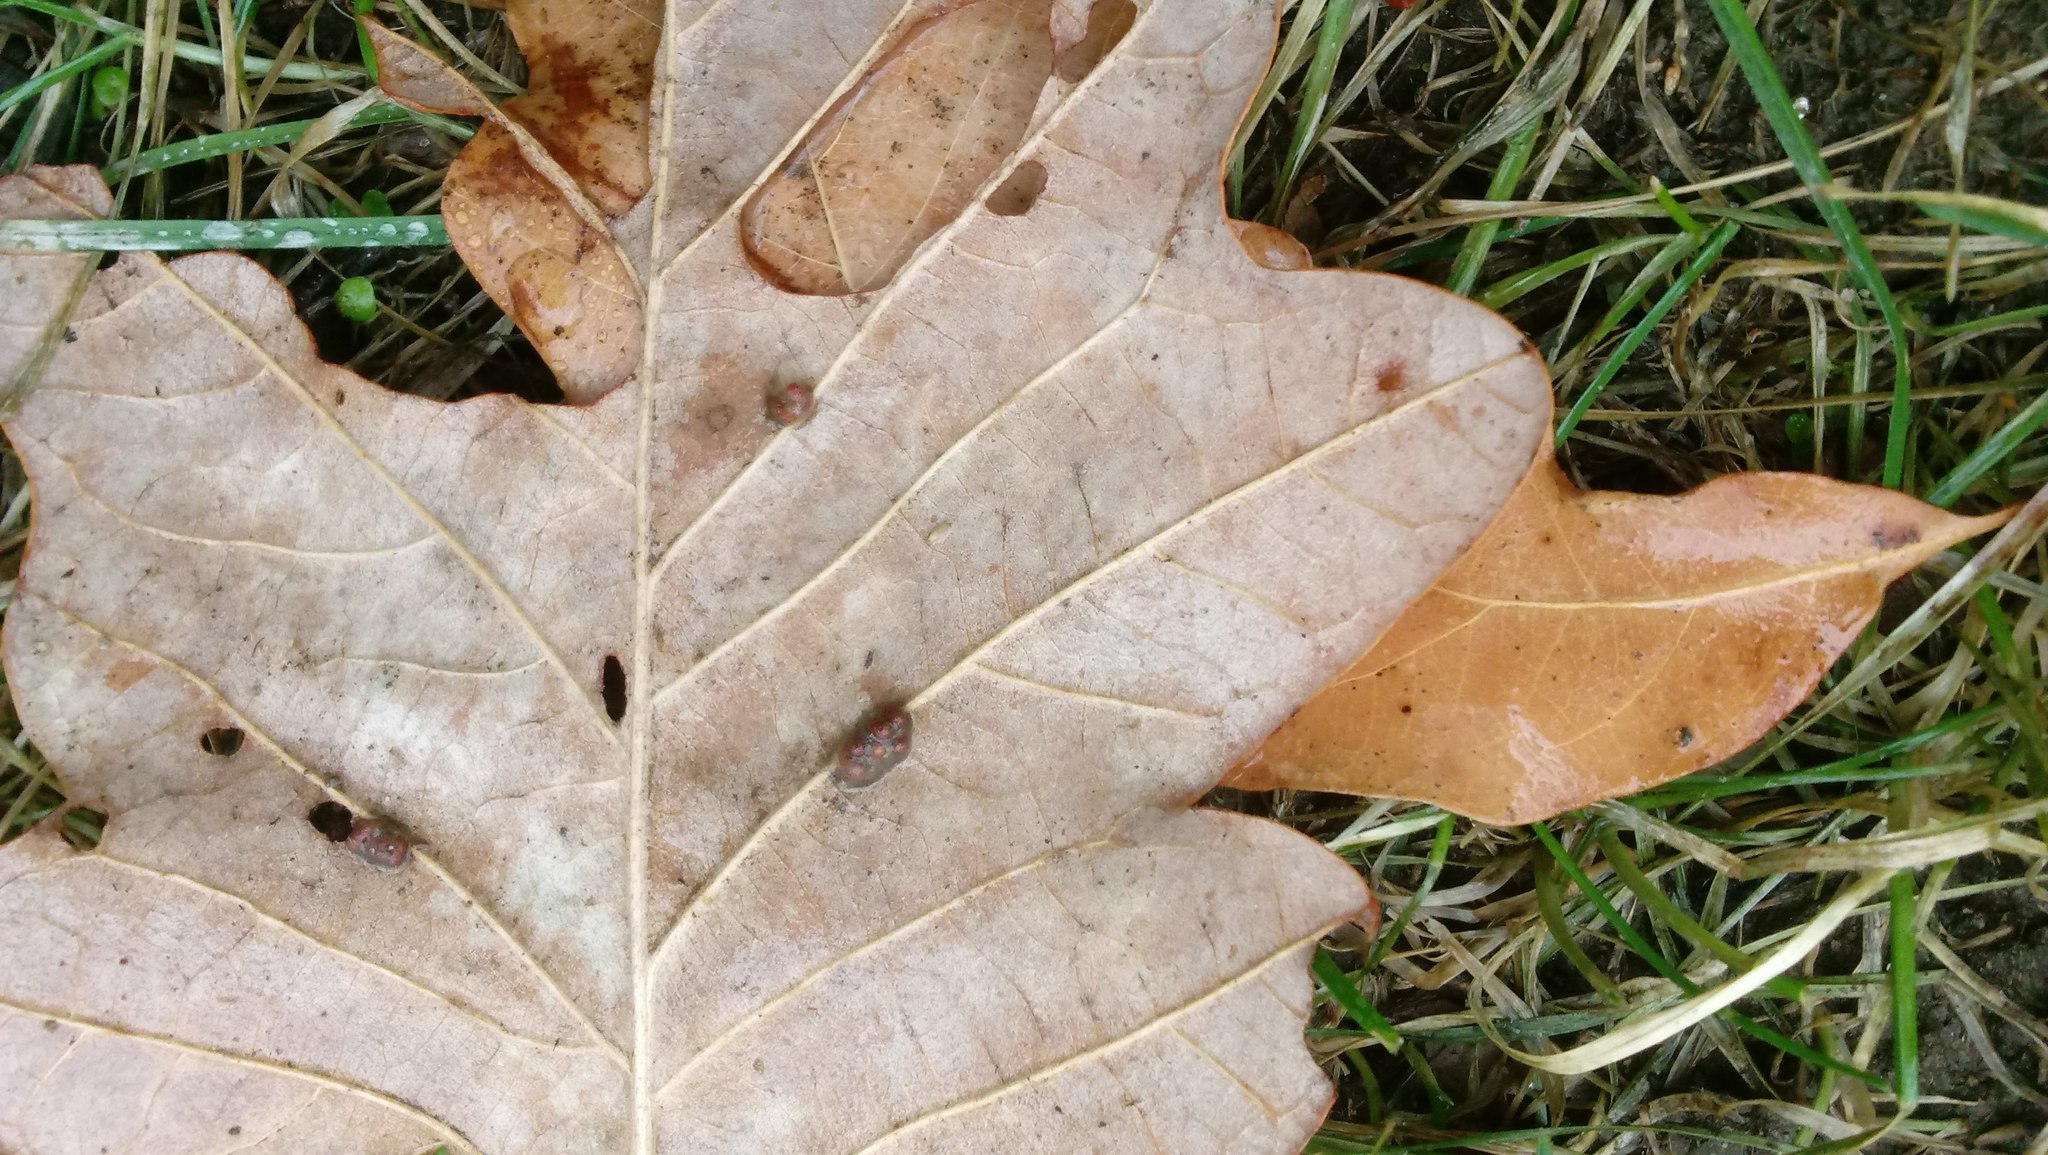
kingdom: Animalia
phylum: Arthropoda
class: Insecta
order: Hymenoptera
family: Cynipidae
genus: Andricus
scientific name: Andricus Druon ignotum
